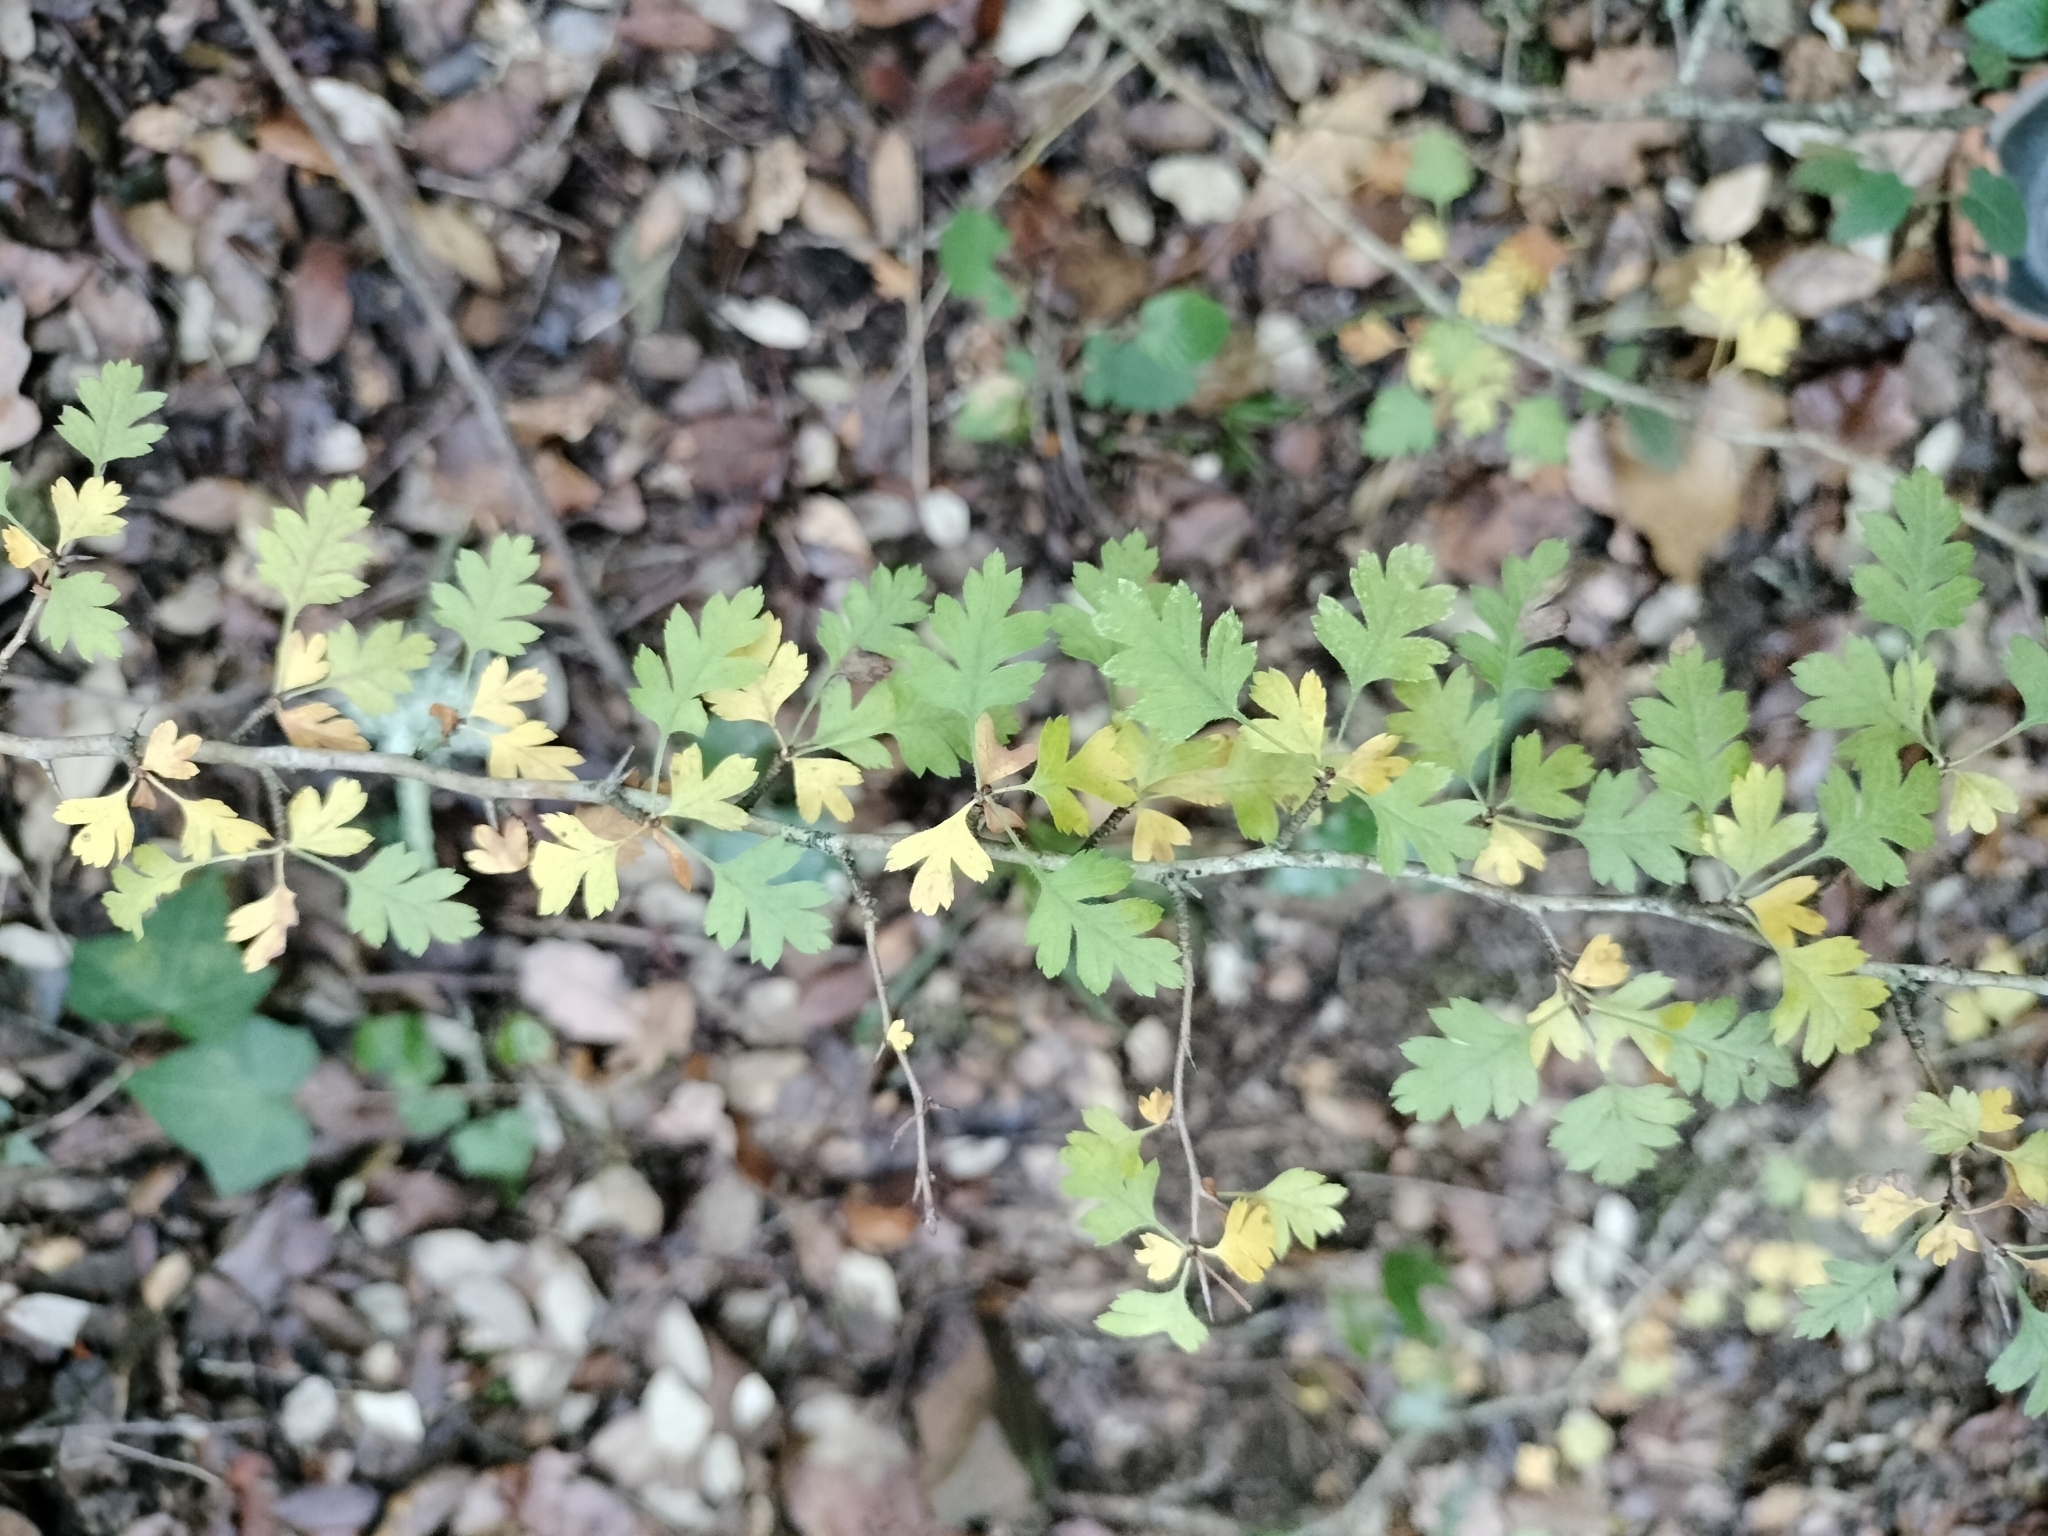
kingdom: Plantae
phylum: Tracheophyta
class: Magnoliopsida
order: Rosales
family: Rosaceae
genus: Crataegus
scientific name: Crataegus monogyna
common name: Hawthorn
